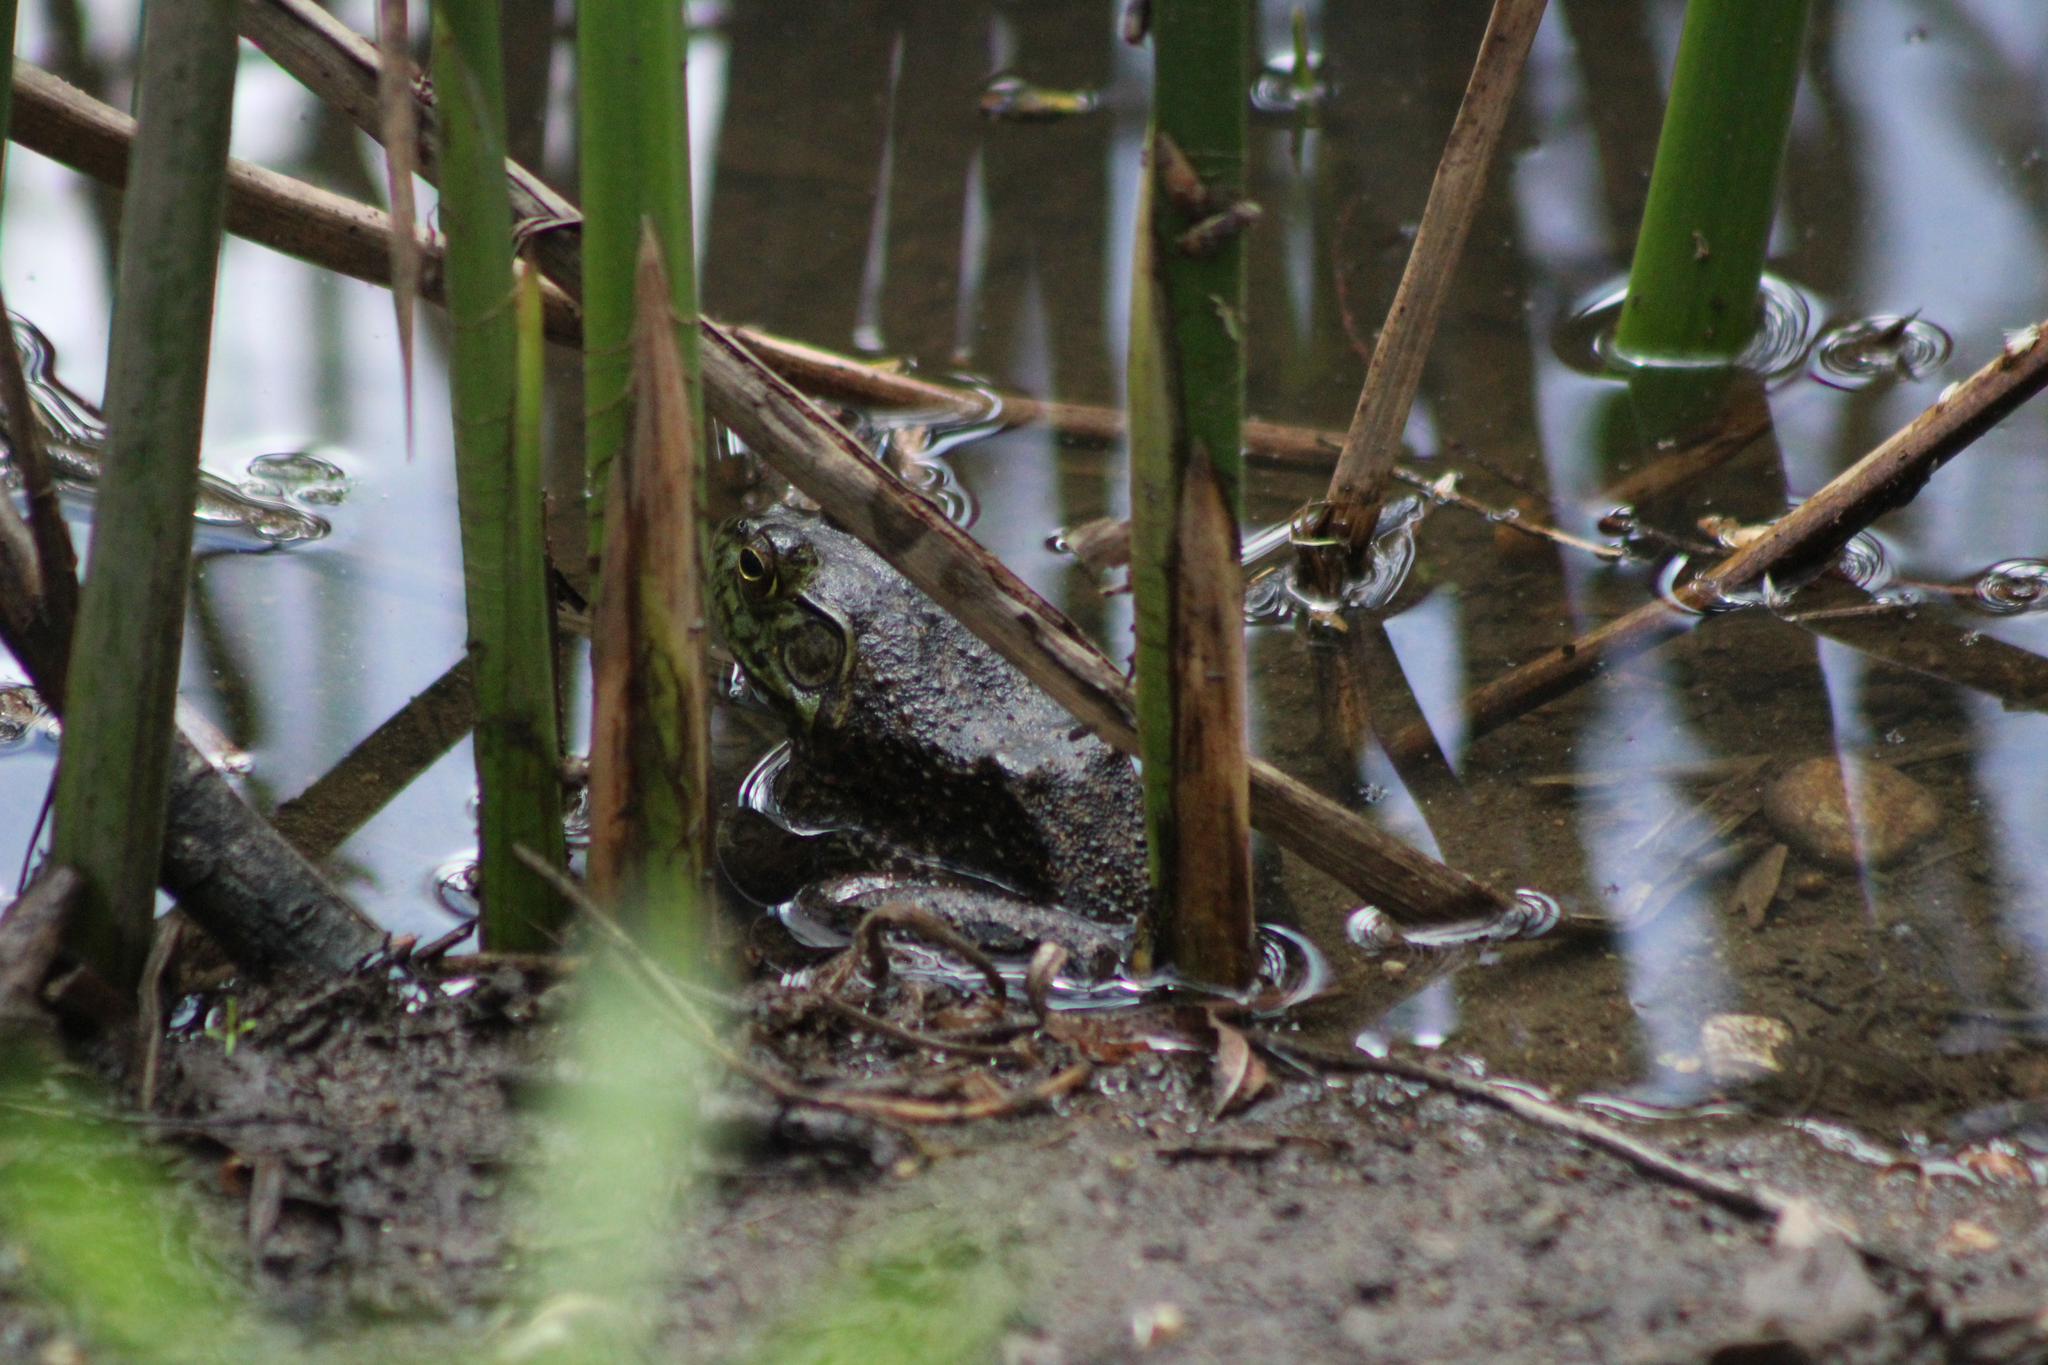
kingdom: Animalia
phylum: Chordata
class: Amphibia
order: Anura
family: Ranidae
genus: Lithobates
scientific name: Lithobates catesbeianus
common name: American bullfrog
